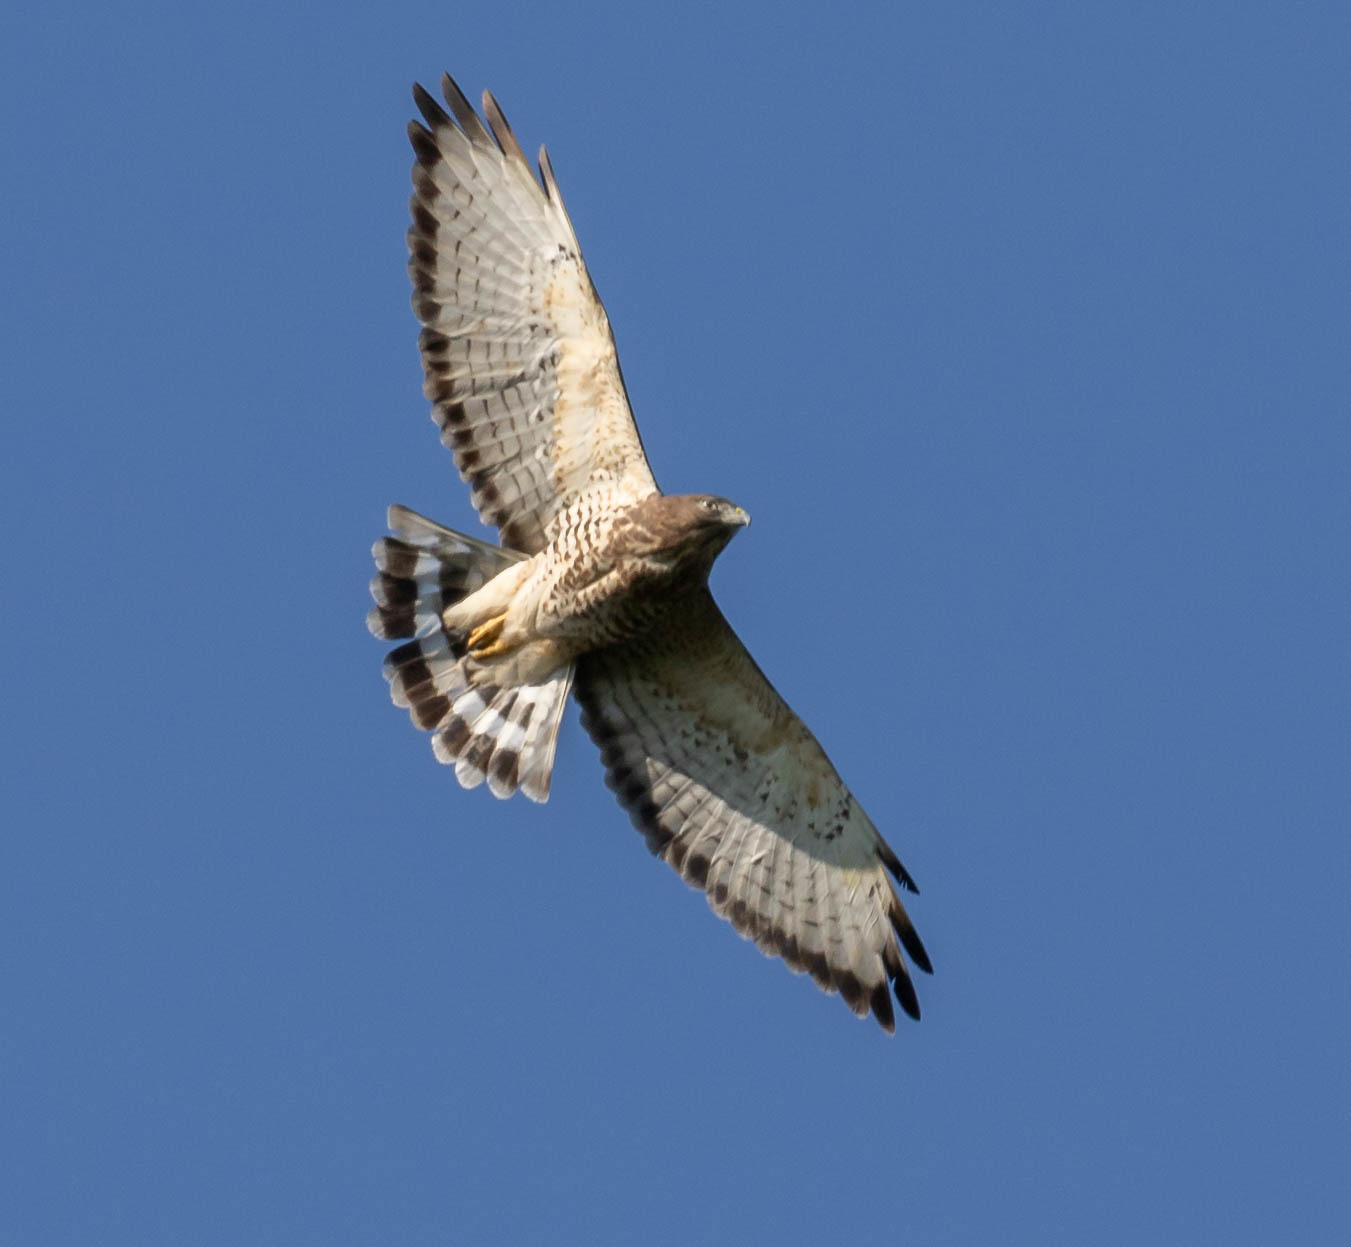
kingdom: Animalia
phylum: Chordata
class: Aves
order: Accipitriformes
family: Accipitridae
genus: Buteo
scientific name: Buteo platypterus
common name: Broad-winged hawk
